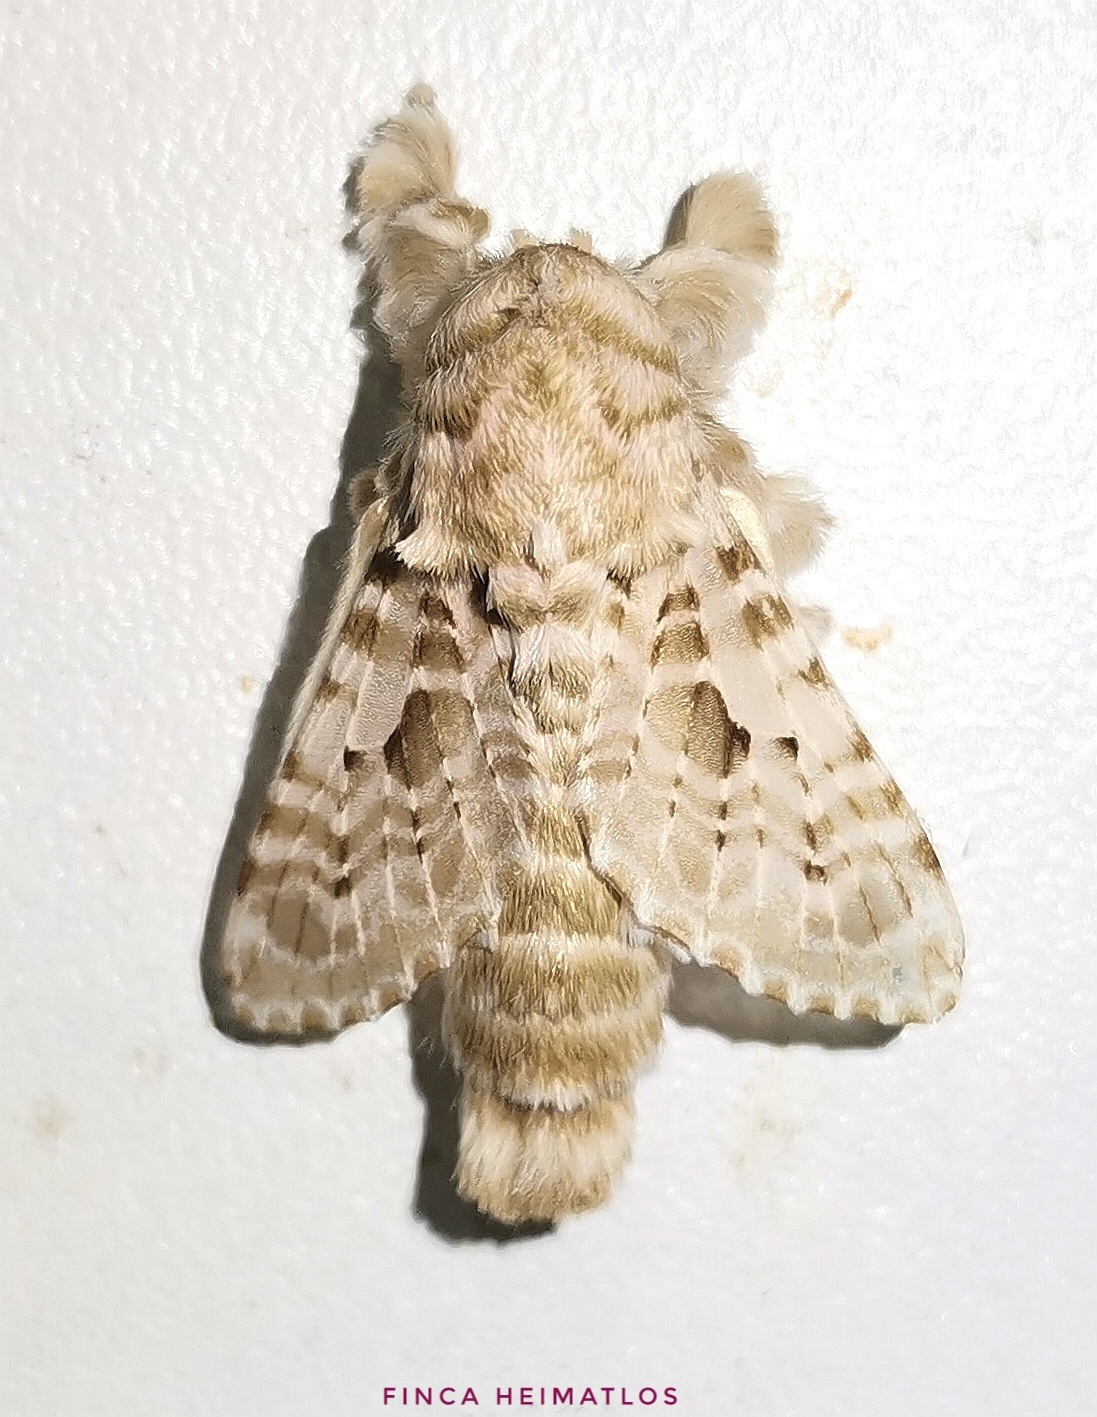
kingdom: Animalia
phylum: Arthropoda
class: Insecta
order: Lepidoptera
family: Lasiocampidae
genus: Tytocha
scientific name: Tytocha lineata
